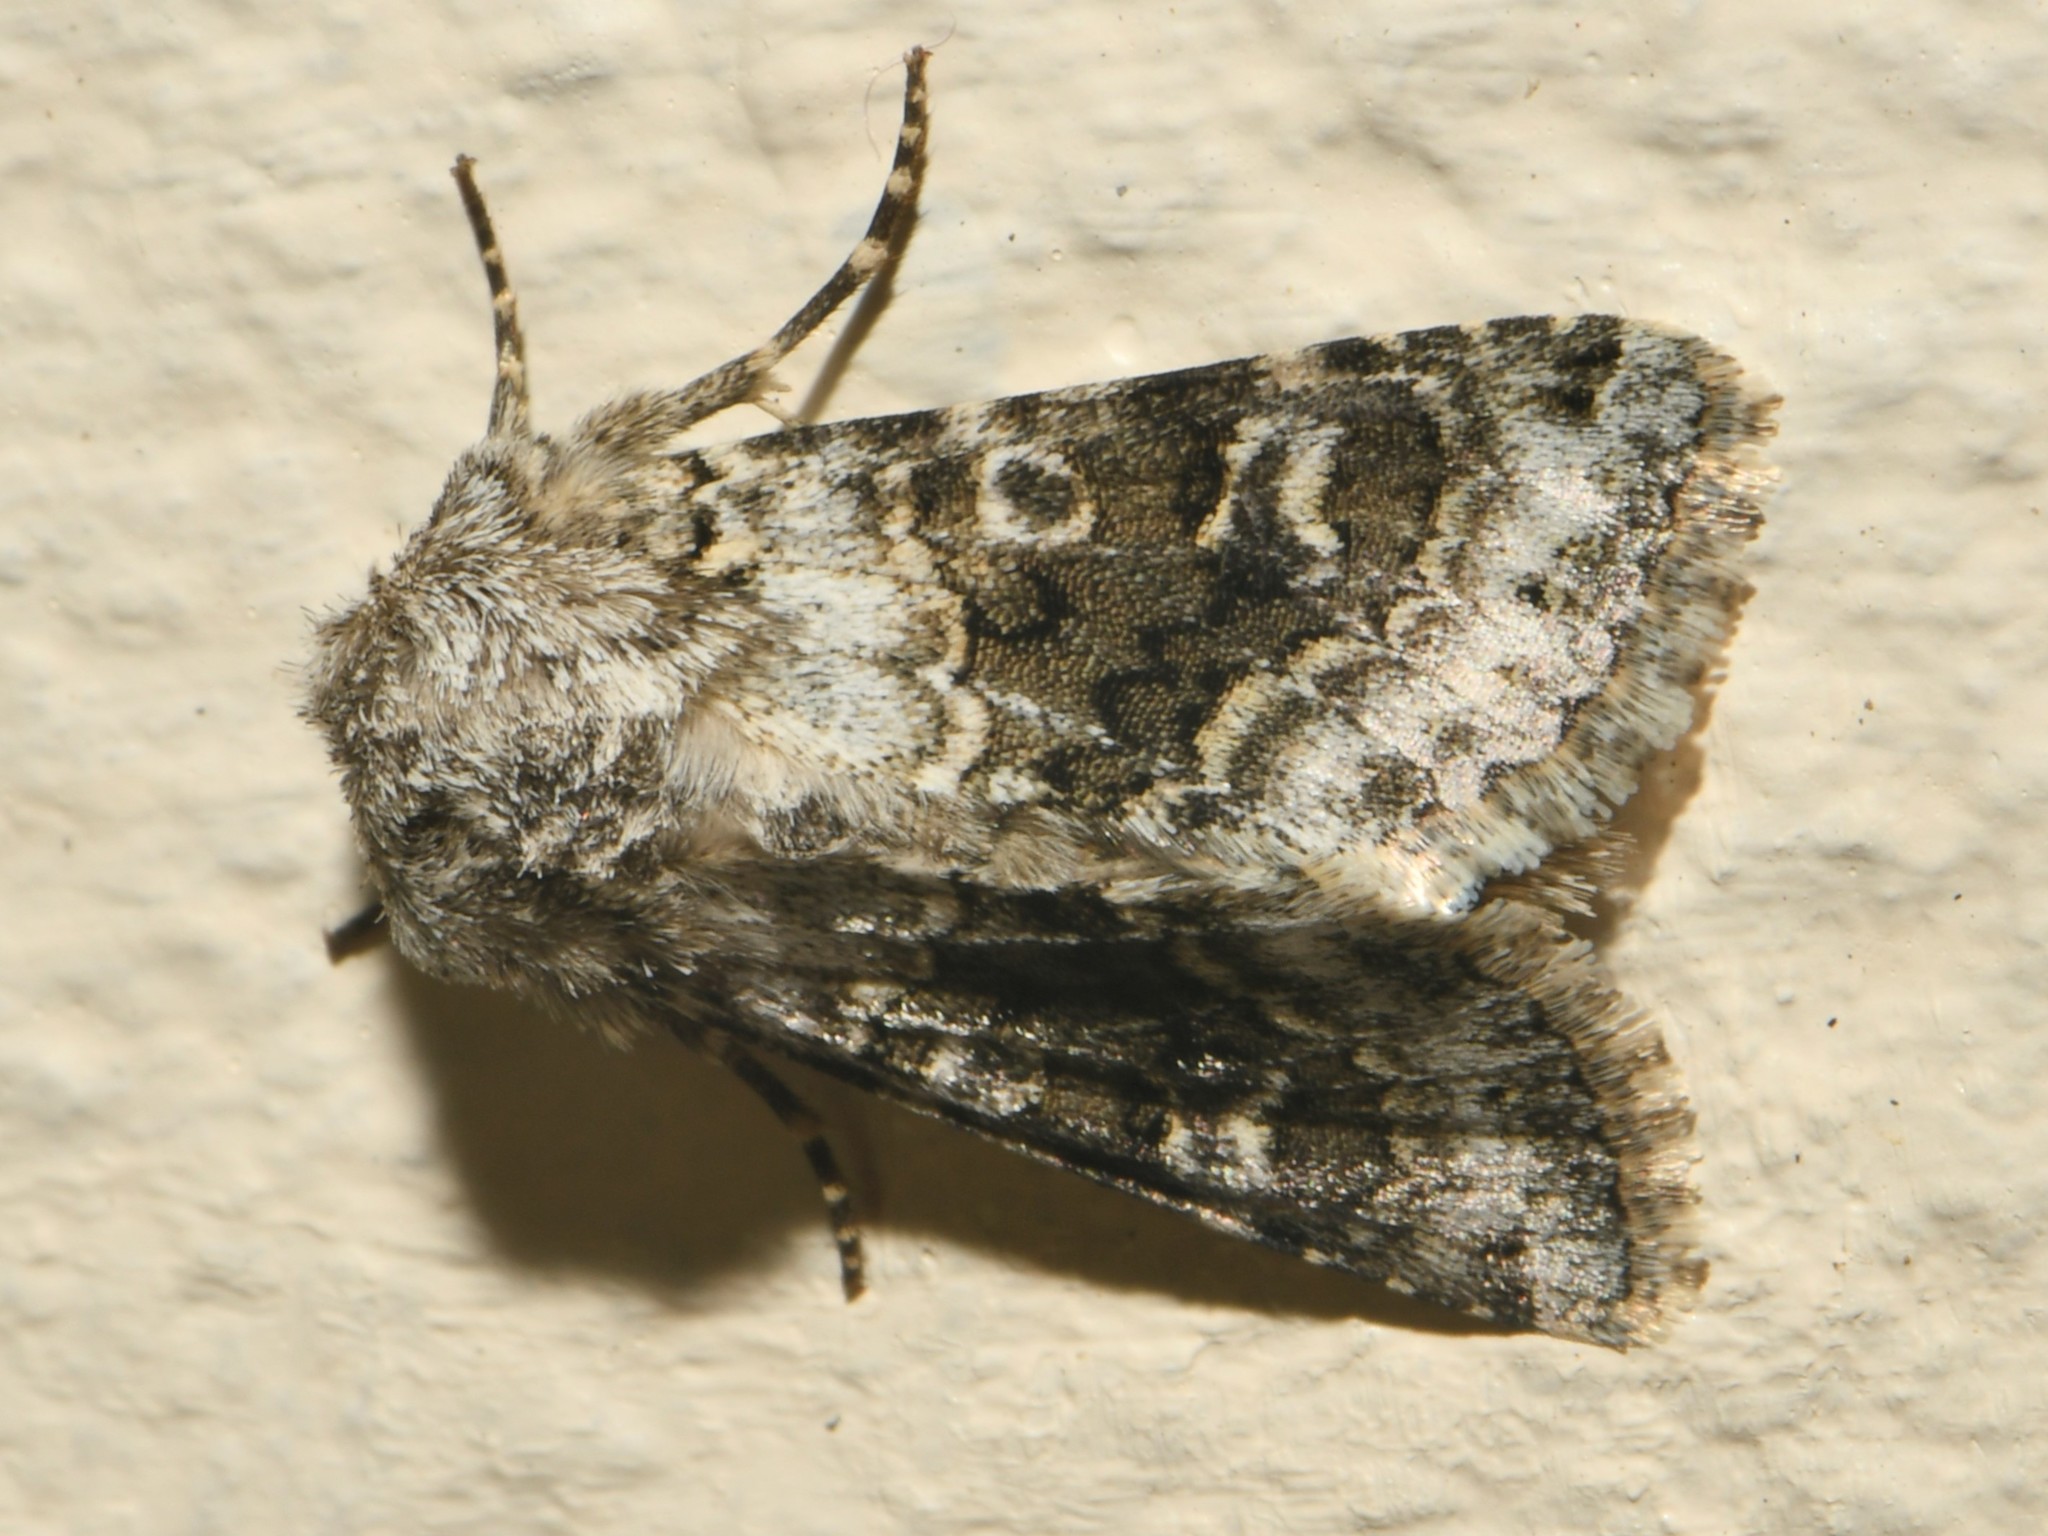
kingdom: Animalia
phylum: Arthropoda
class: Insecta
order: Lepidoptera
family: Noctuidae
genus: Hecatera
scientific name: Hecatera bicolorata
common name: Broad-barred white
